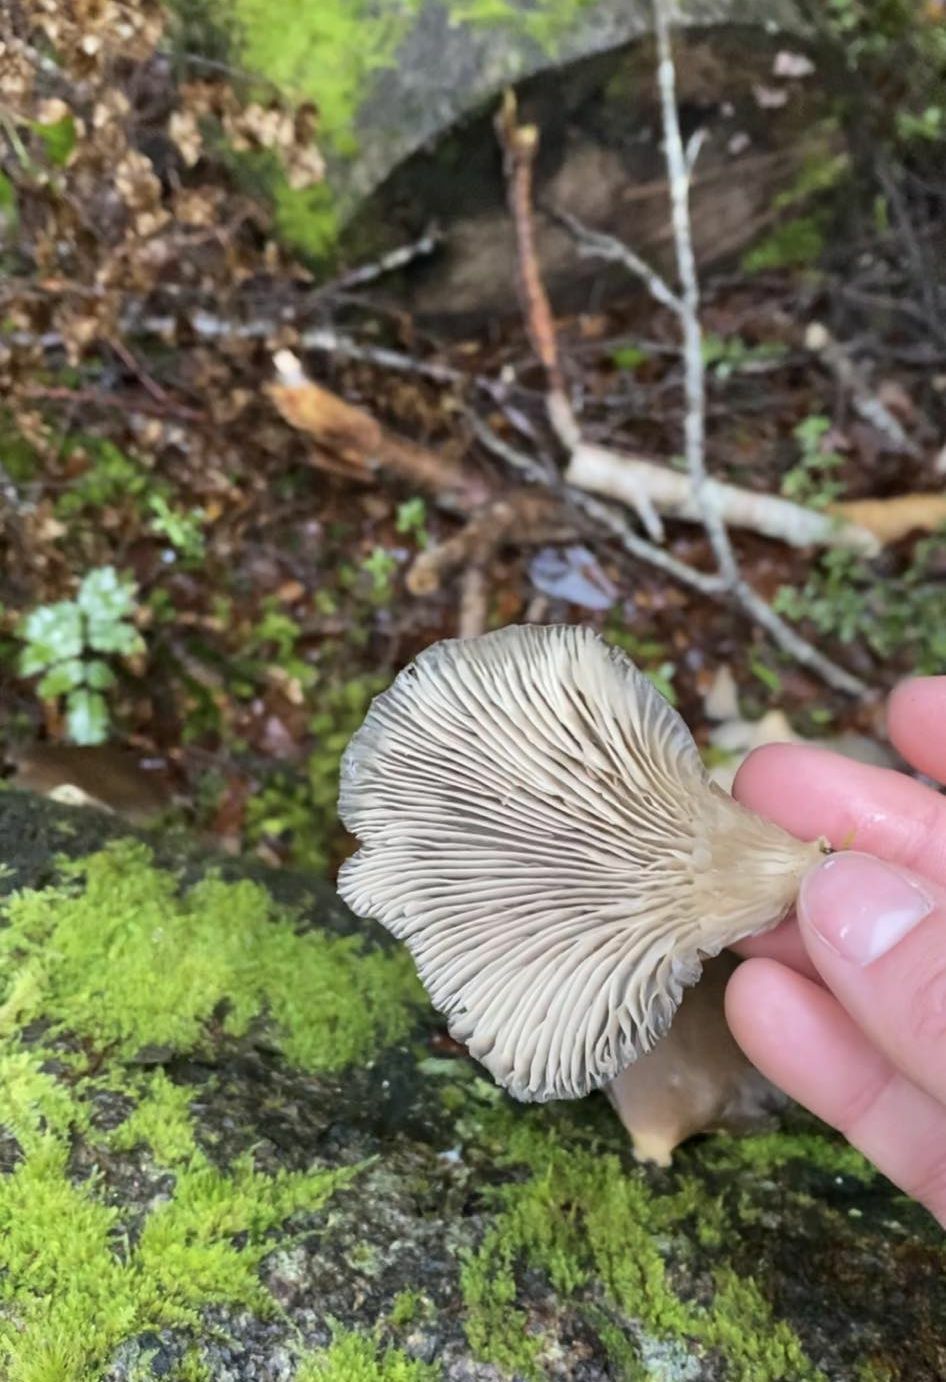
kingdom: Fungi
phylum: Basidiomycota
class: Agaricomycetes
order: Agaricales
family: Pleurotaceae
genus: Pleurotus
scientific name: Pleurotus purpureo-olivaceus
